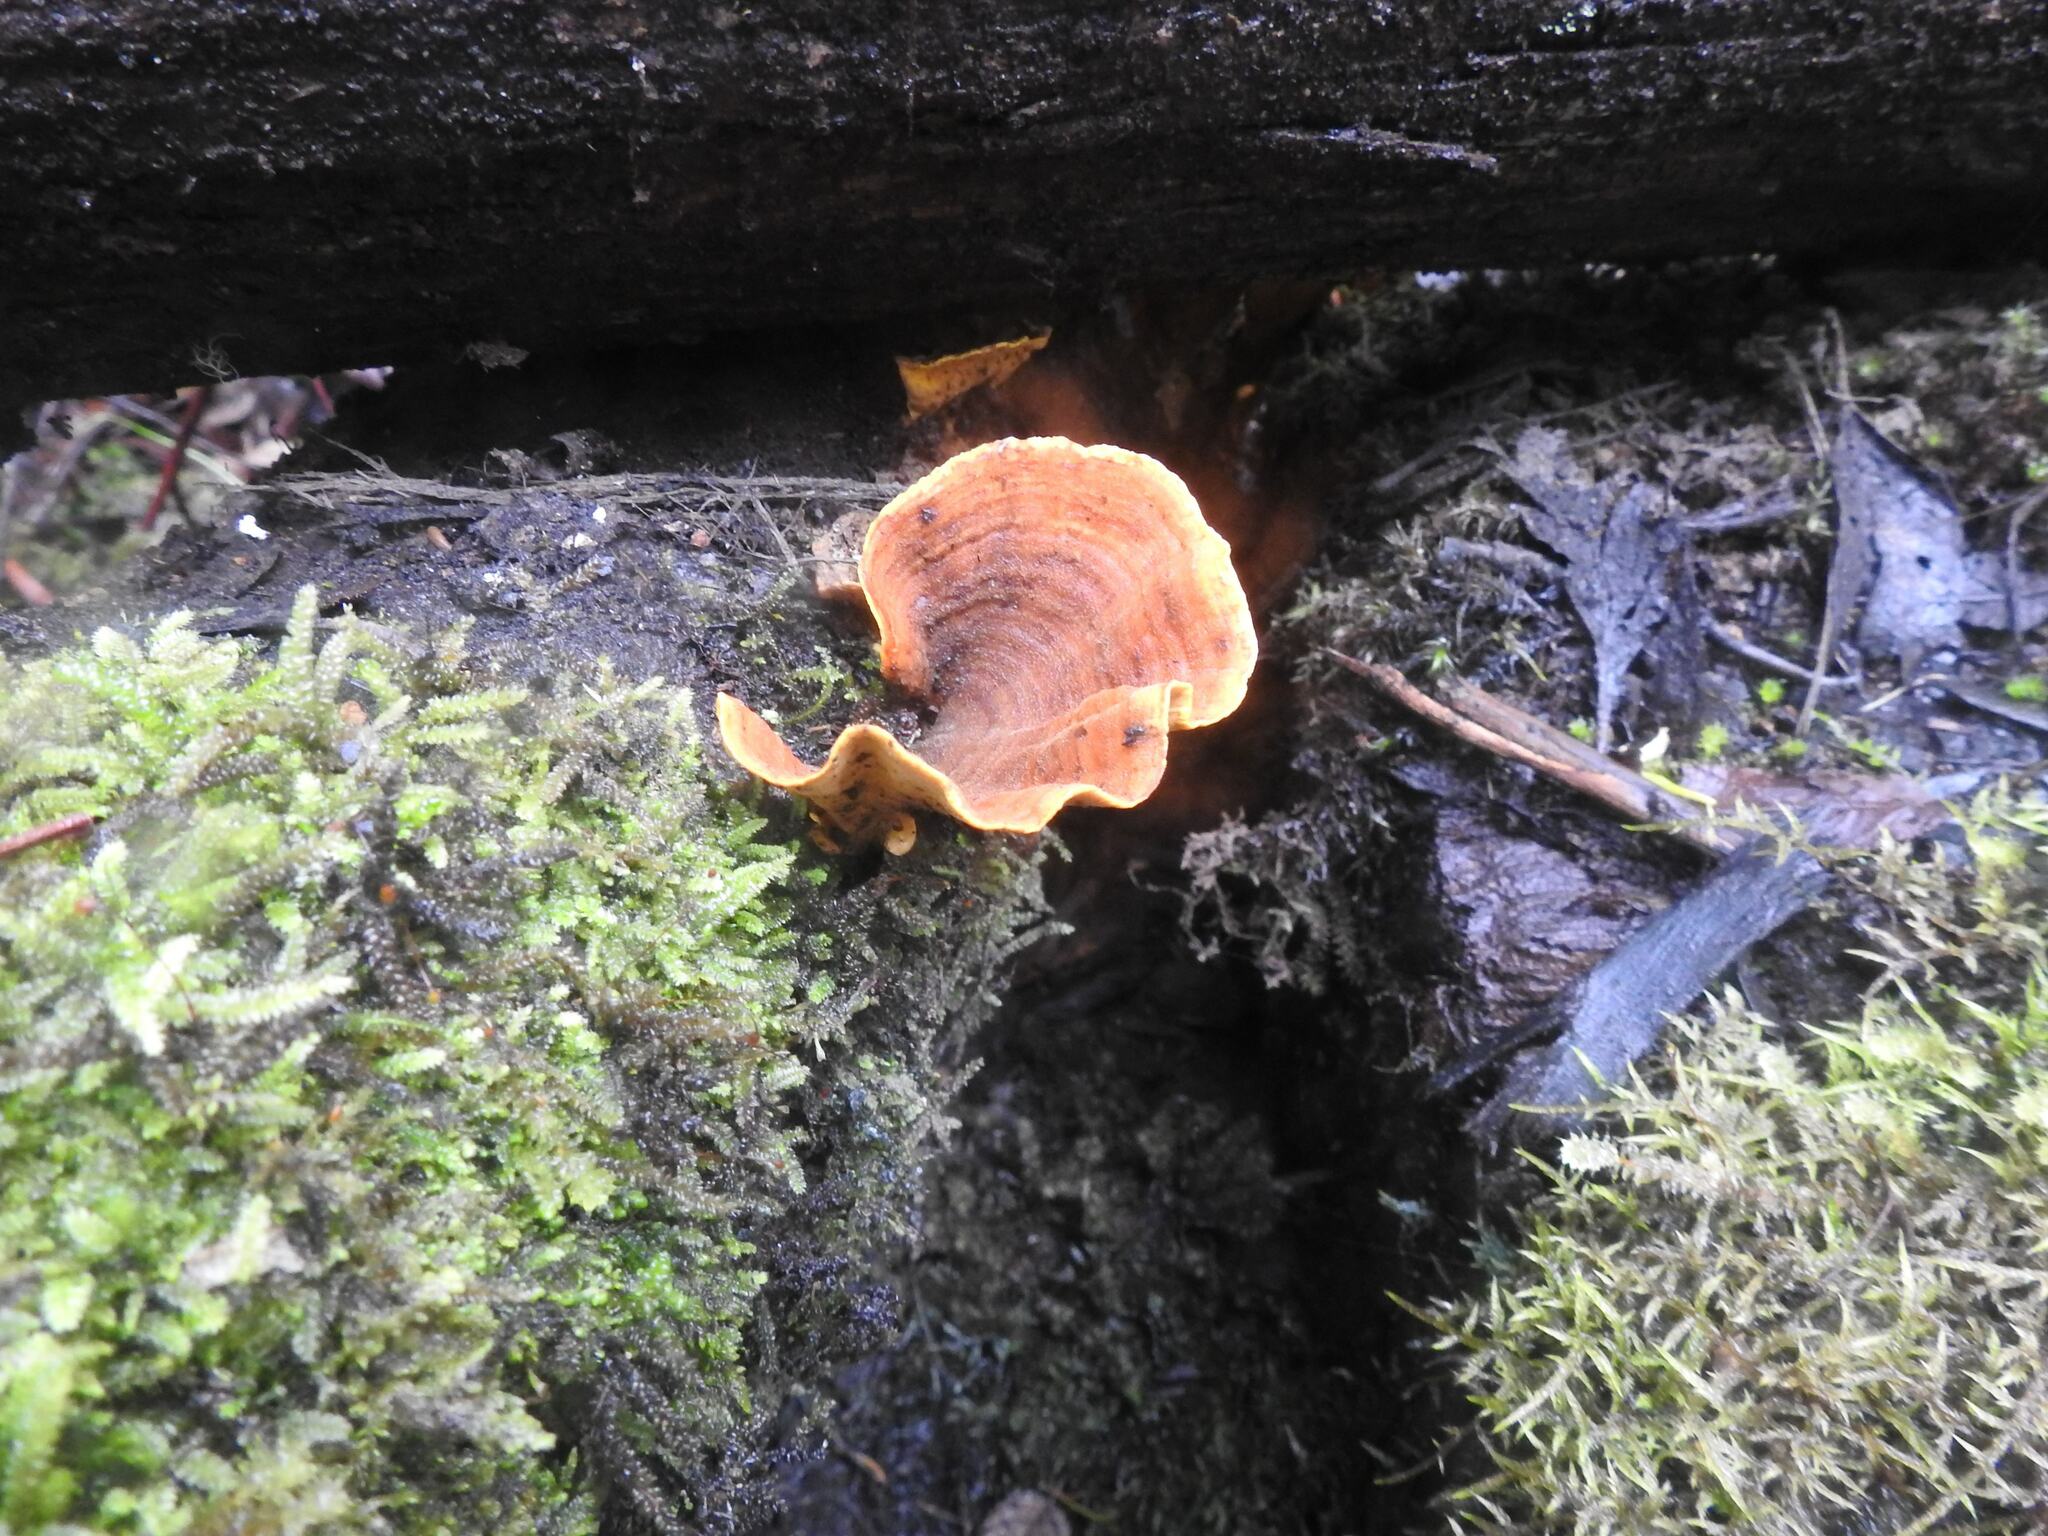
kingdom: Fungi
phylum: Basidiomycota
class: Agaricomycetes
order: Russulales
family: Stereaceae
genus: Stereum
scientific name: Stereum ostrea
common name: False turkeytail
